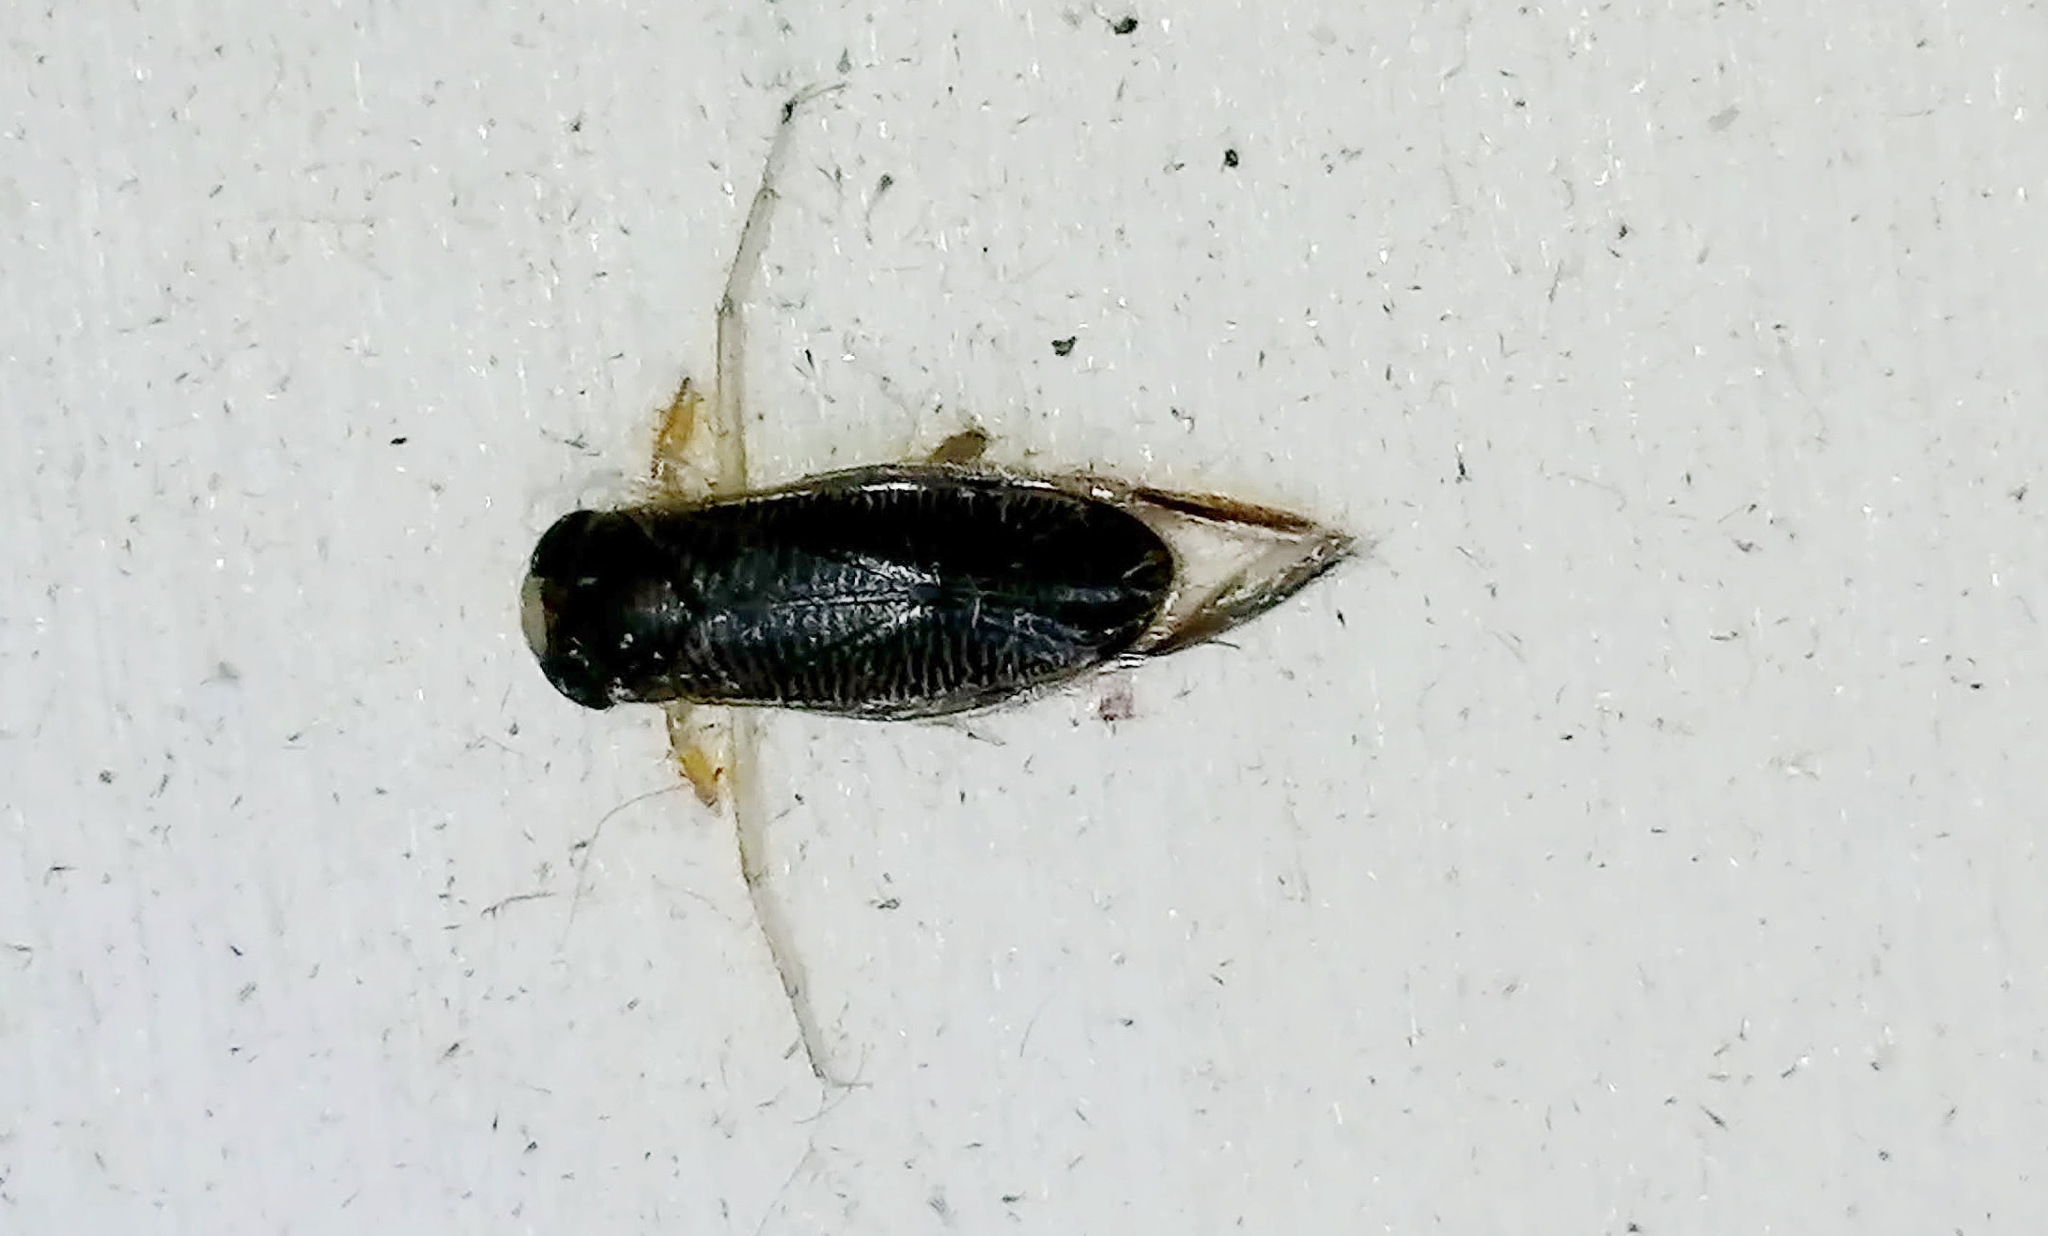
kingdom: Animalia
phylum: Arthropoda
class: Insecta
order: Hemiptera
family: Corixidae
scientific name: Corixidae
